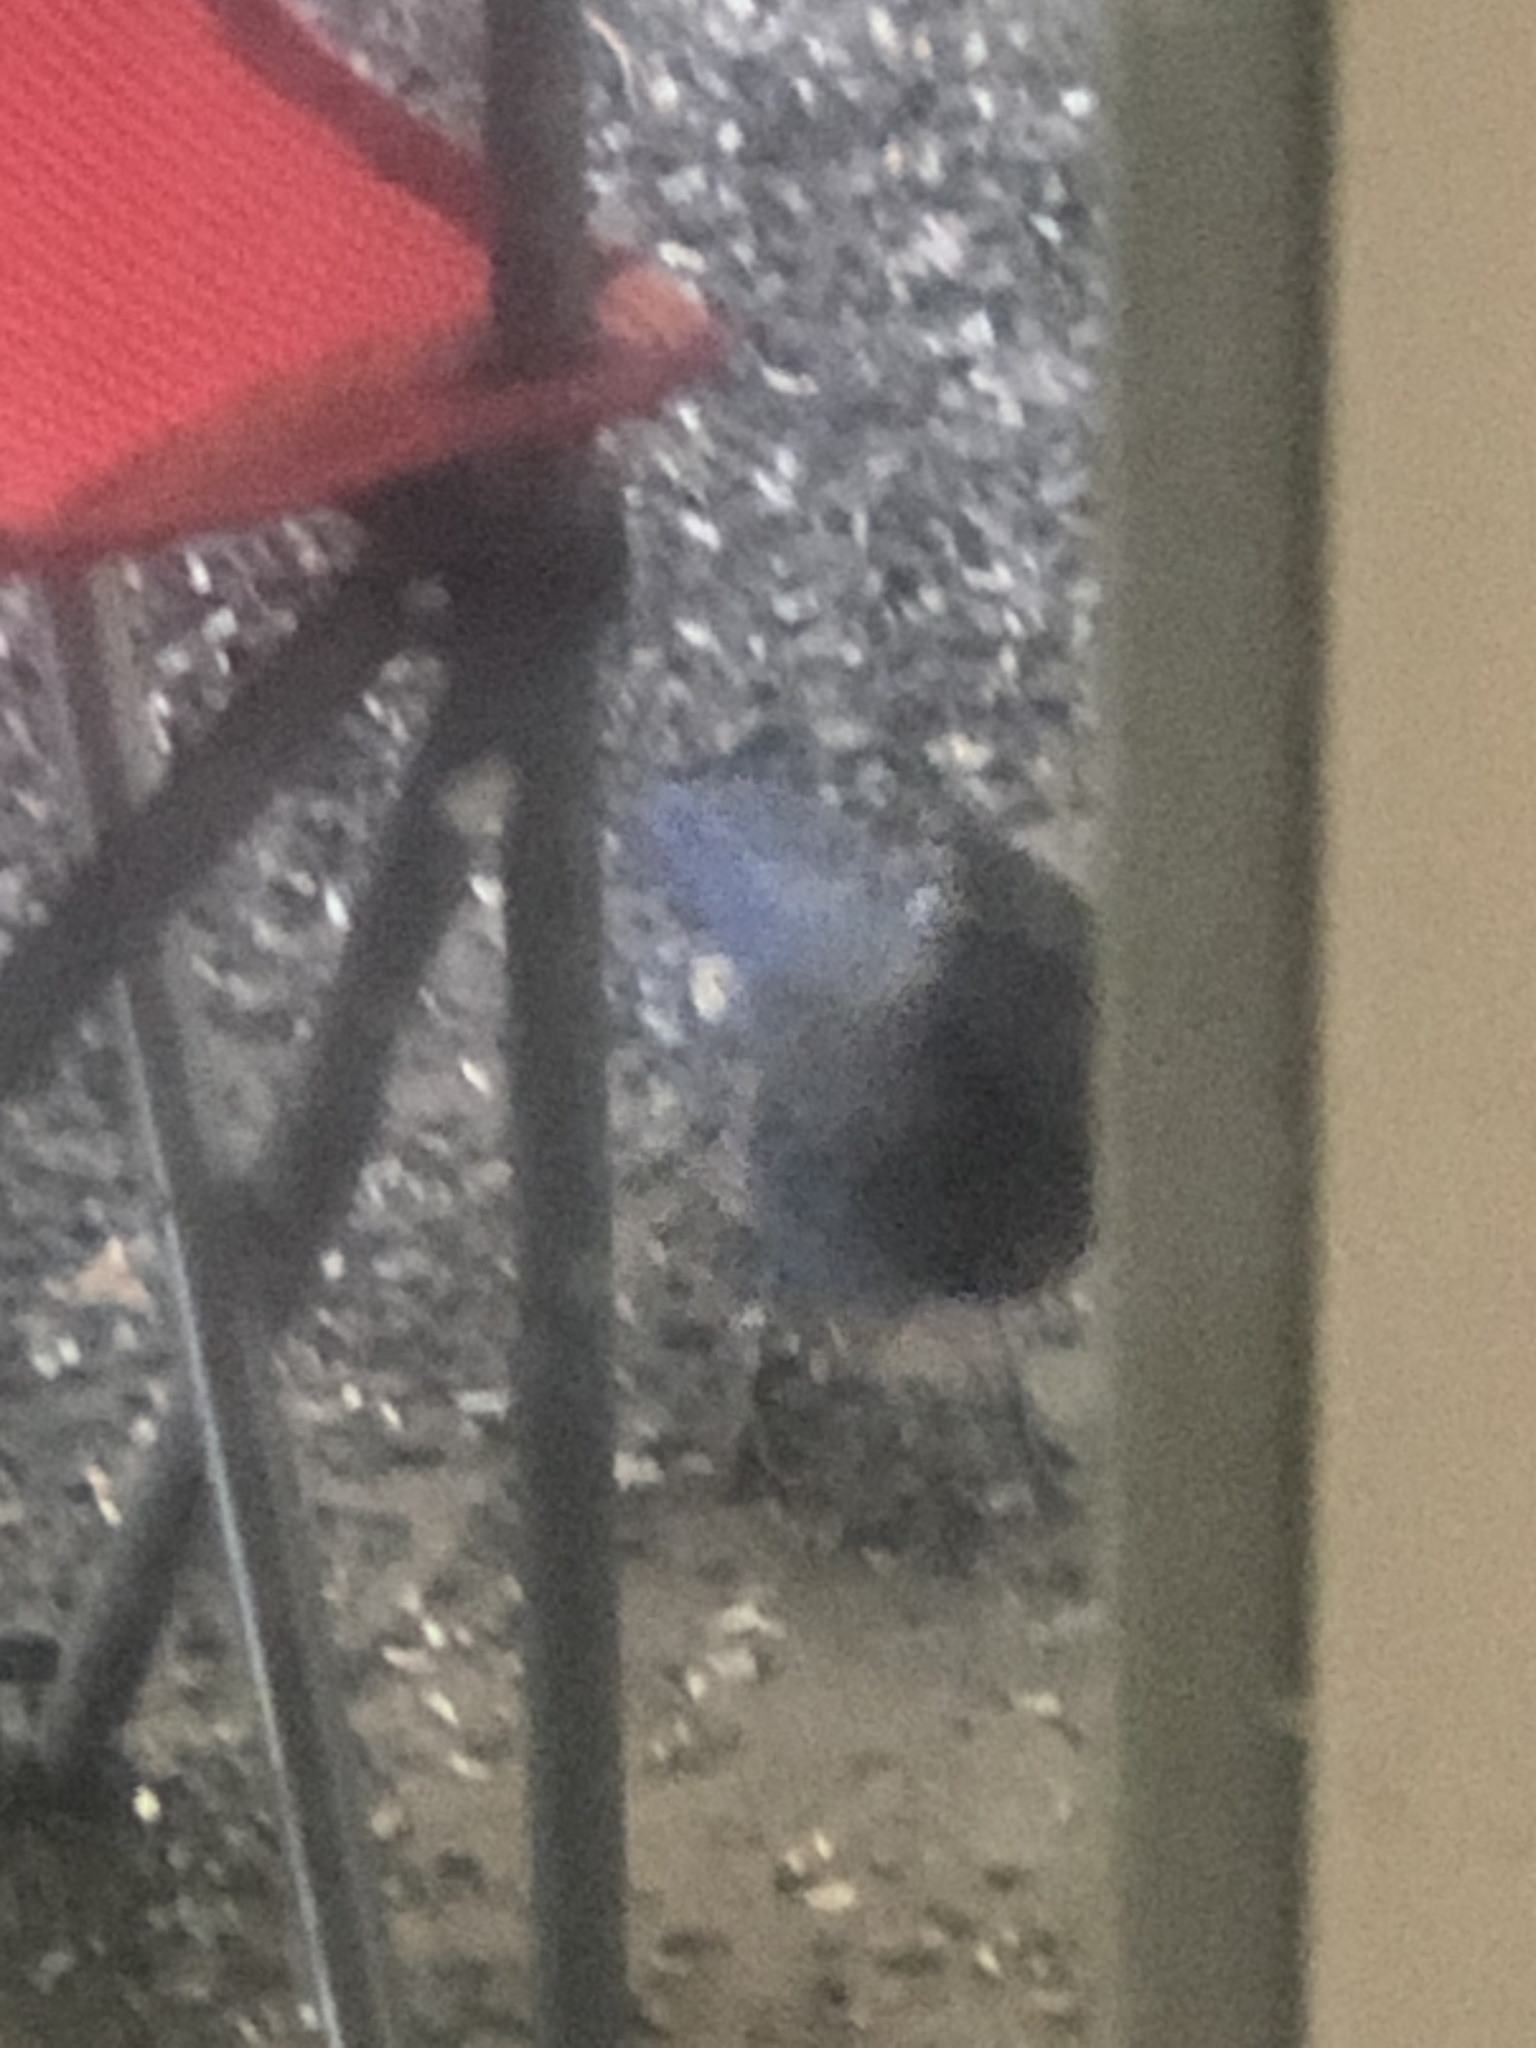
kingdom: Animalia
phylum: Chordata
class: Aves
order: Passeriformes
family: Corvidae
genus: Cyanocitta
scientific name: Cyanocitta stelleri
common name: Steller's jay
